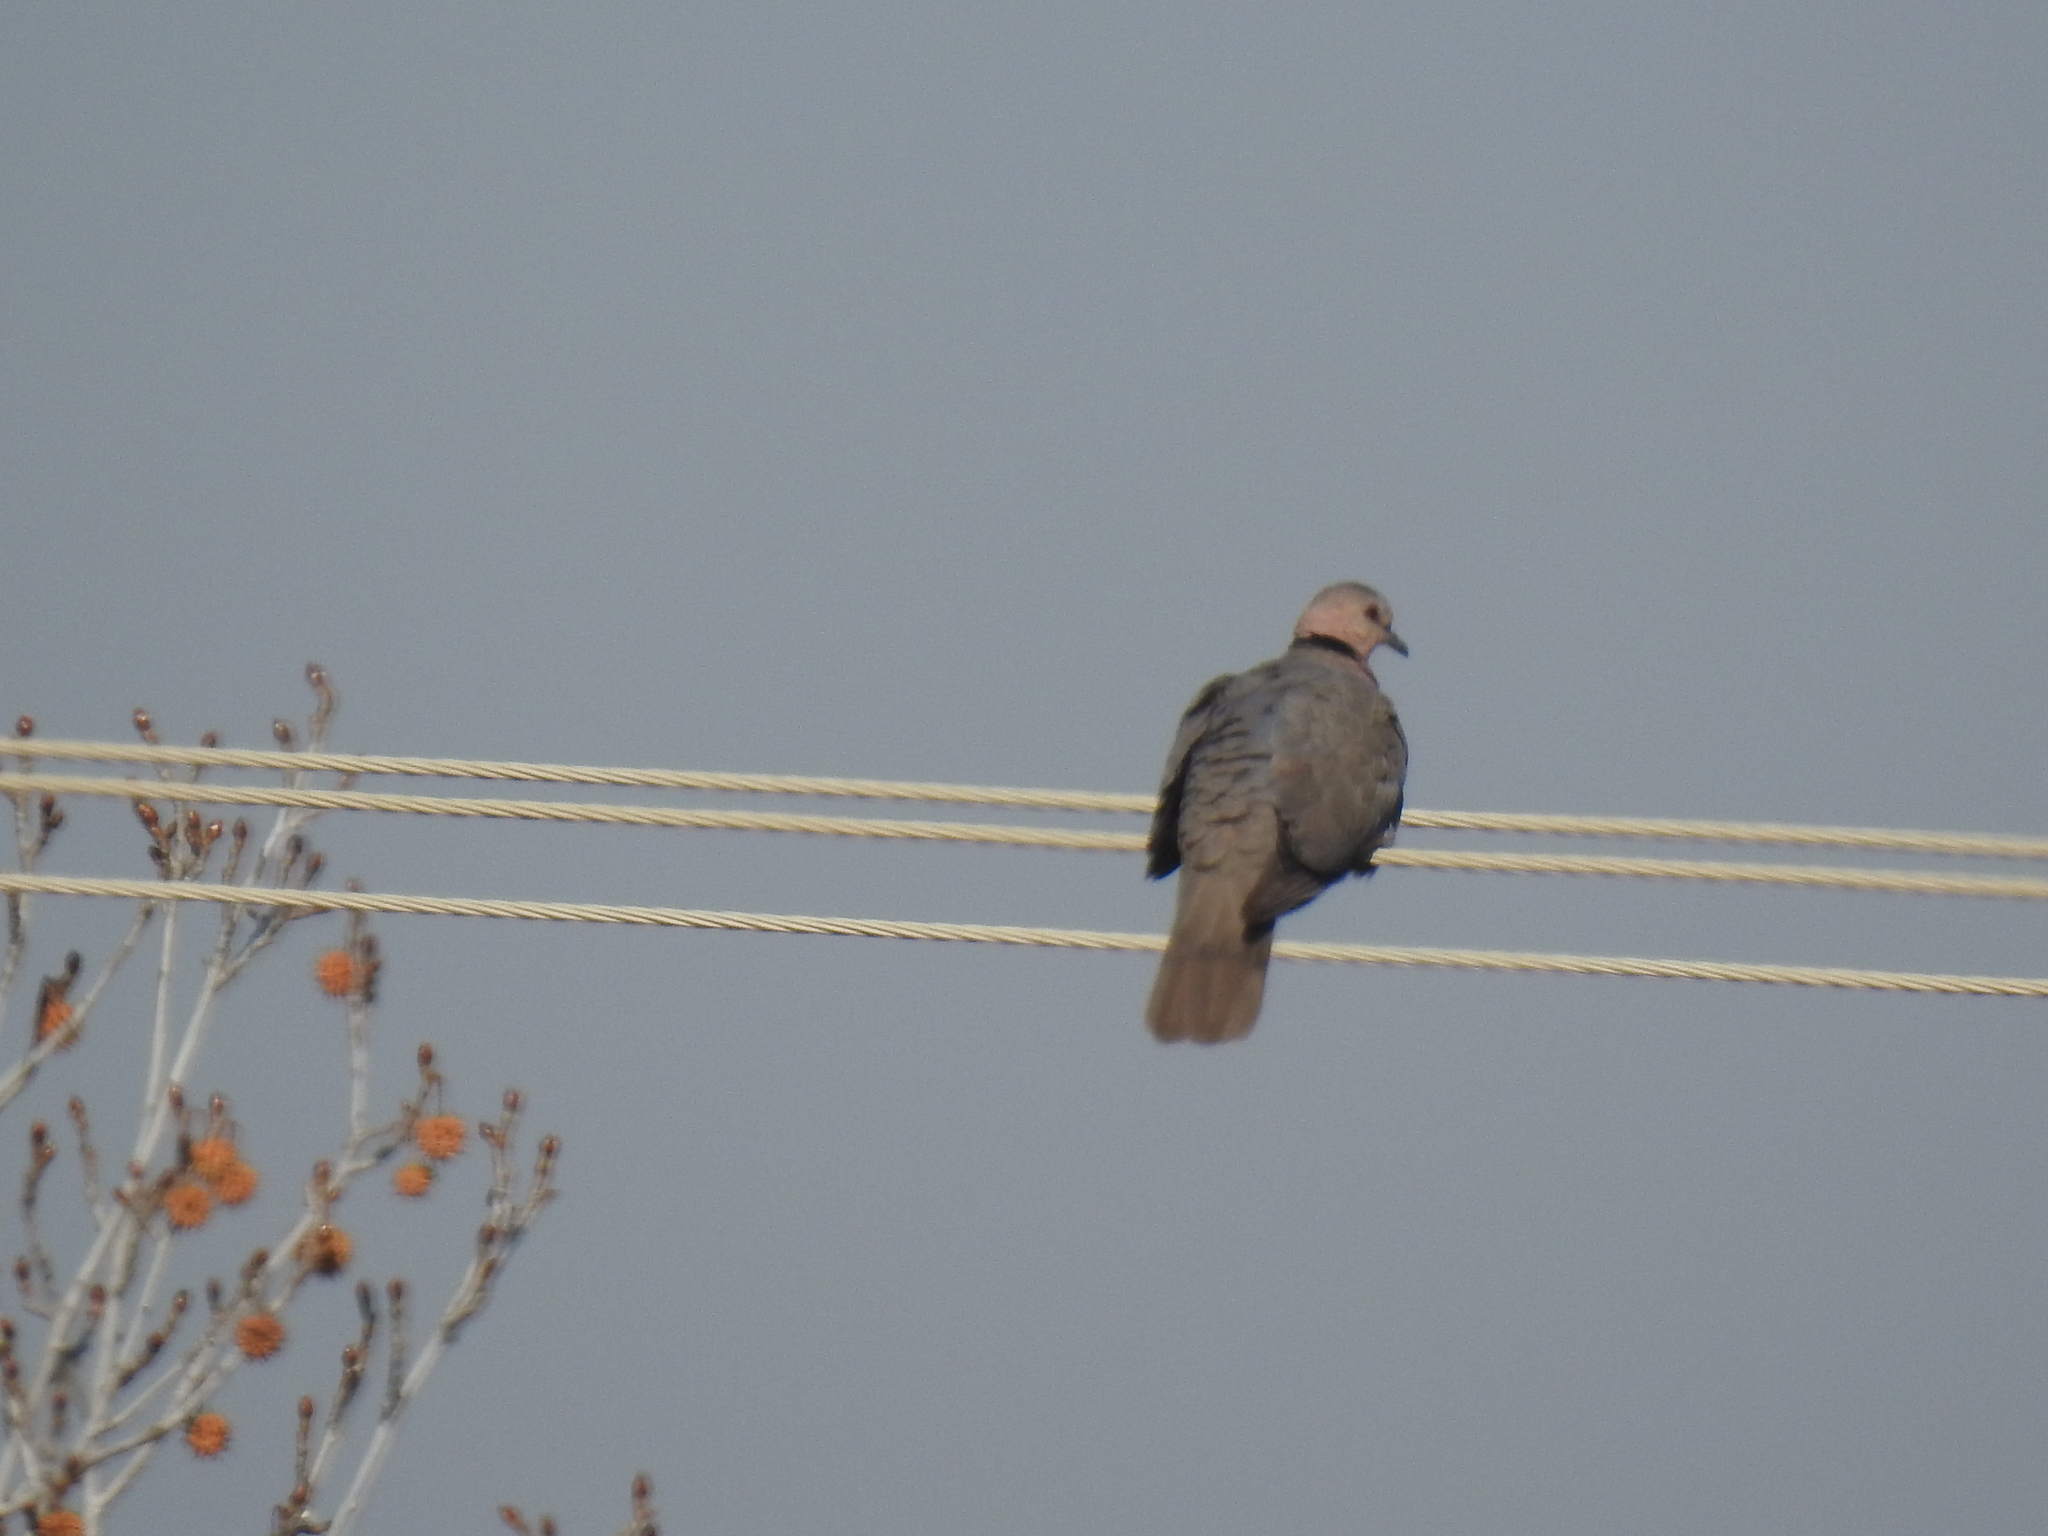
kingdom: Animalia
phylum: Chordata
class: Aves
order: Columbiformes
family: Columbidae
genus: Streptopelia
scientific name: Streptopelia semitorquata
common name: Red-eyed dove
